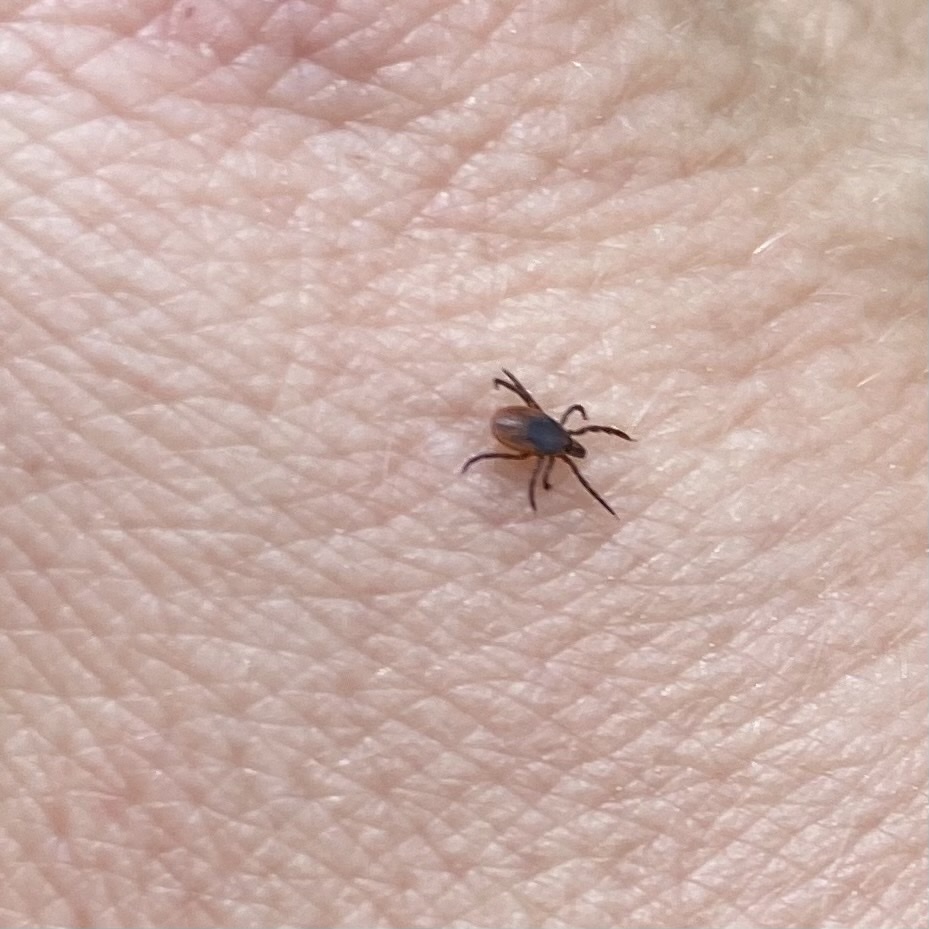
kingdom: Animalia
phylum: Arthropoda
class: Arachnida
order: Ixodida
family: Ixodidae
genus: Ixodes
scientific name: Ixodes scapularis
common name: Black legged tick
